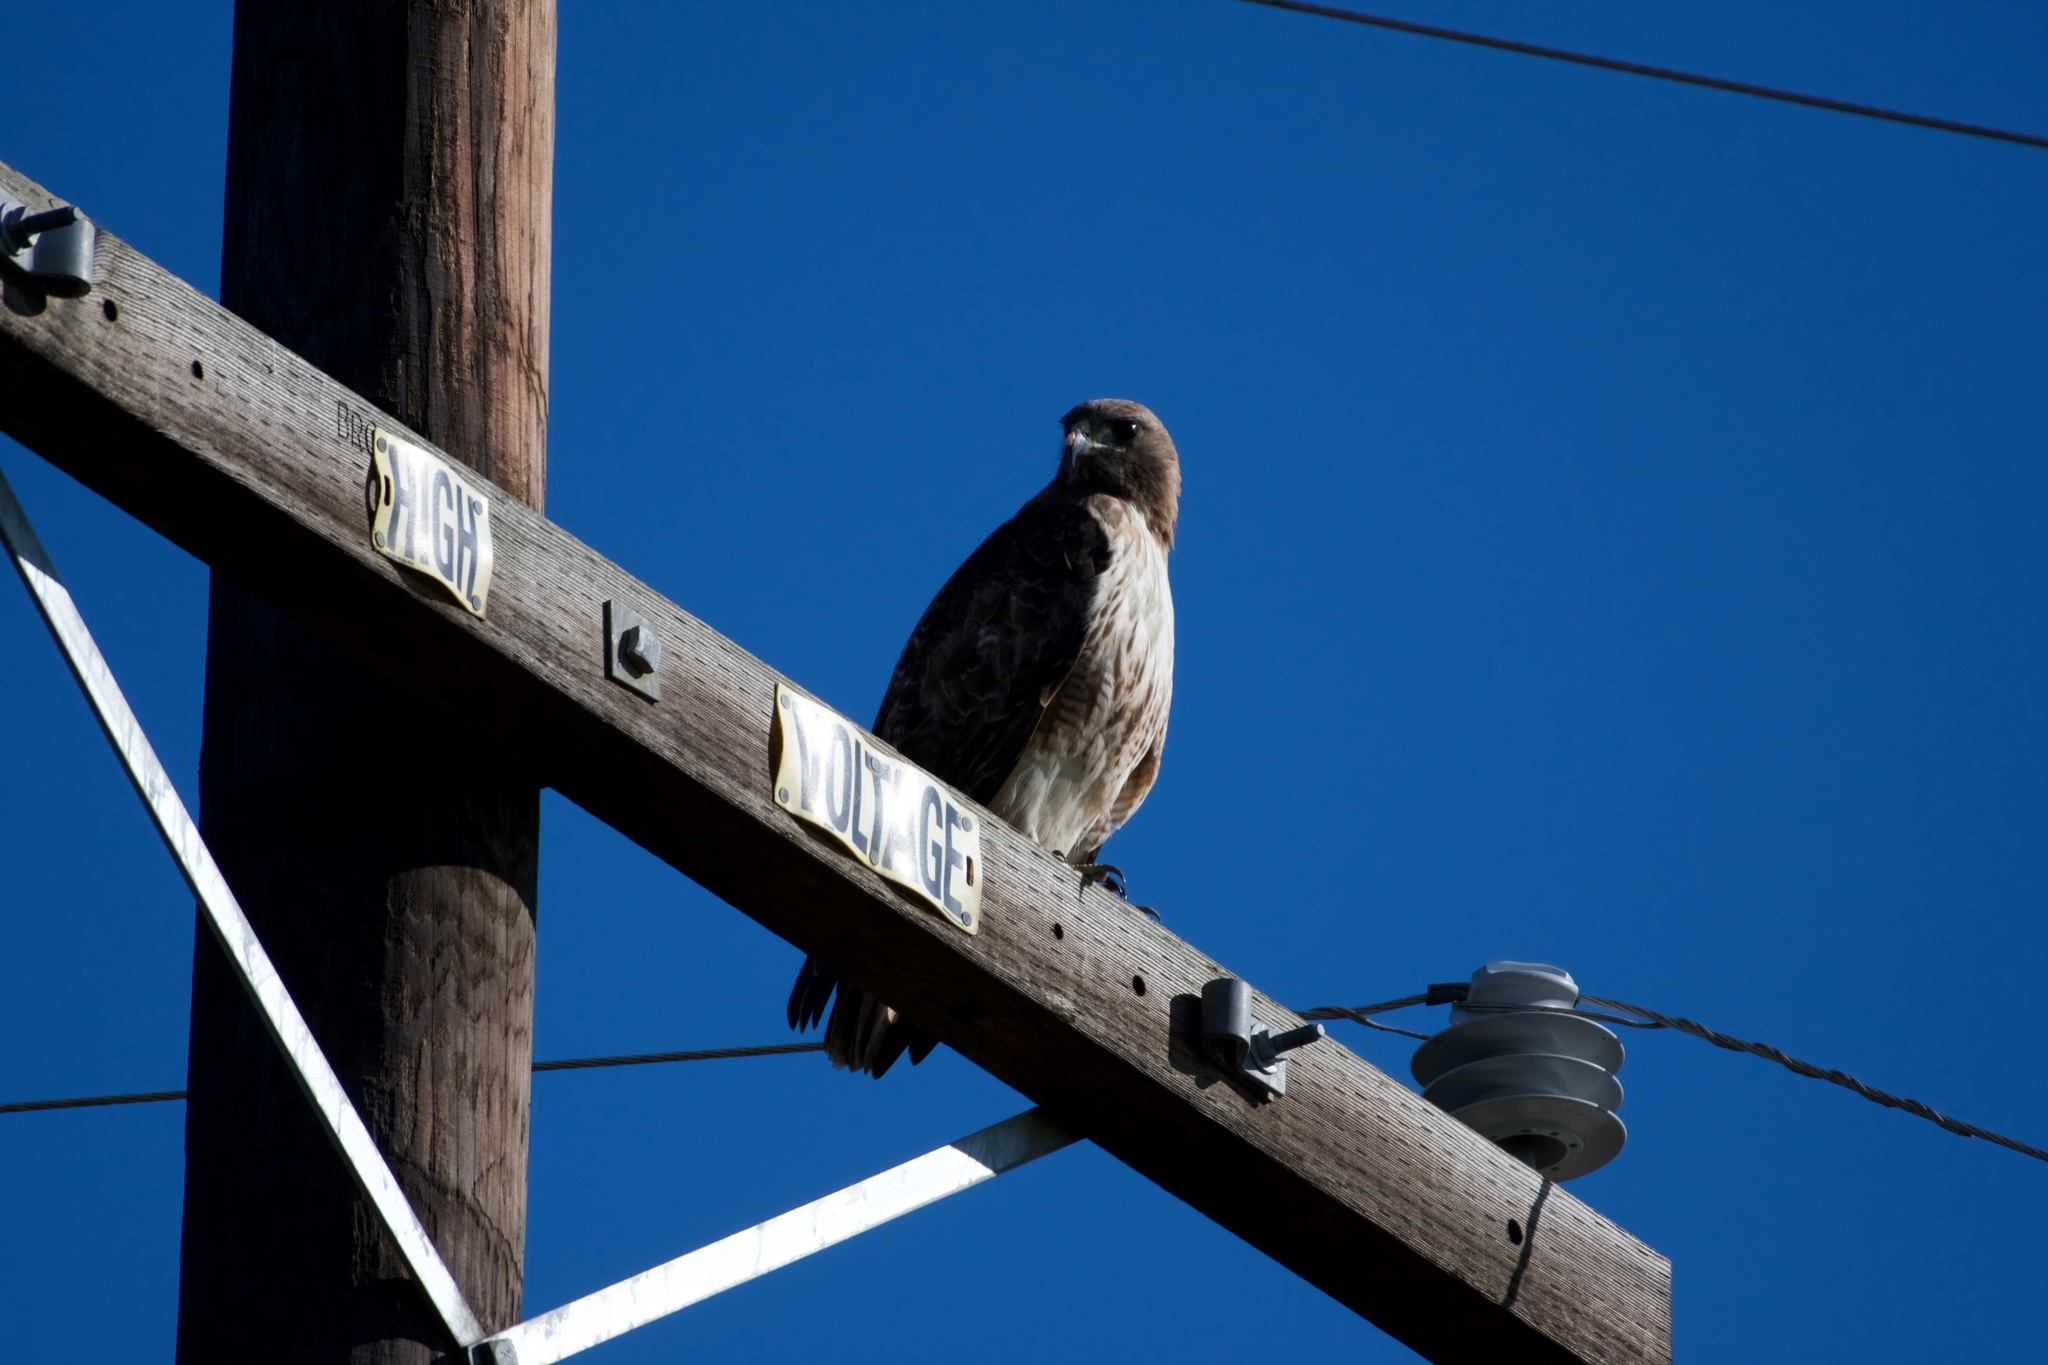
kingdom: Animalia
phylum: Chordata
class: Aves
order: Accipitriformes
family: Accipitridae
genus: Buteo
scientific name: Buteo jamaicensis
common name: Red-tailed hawk
